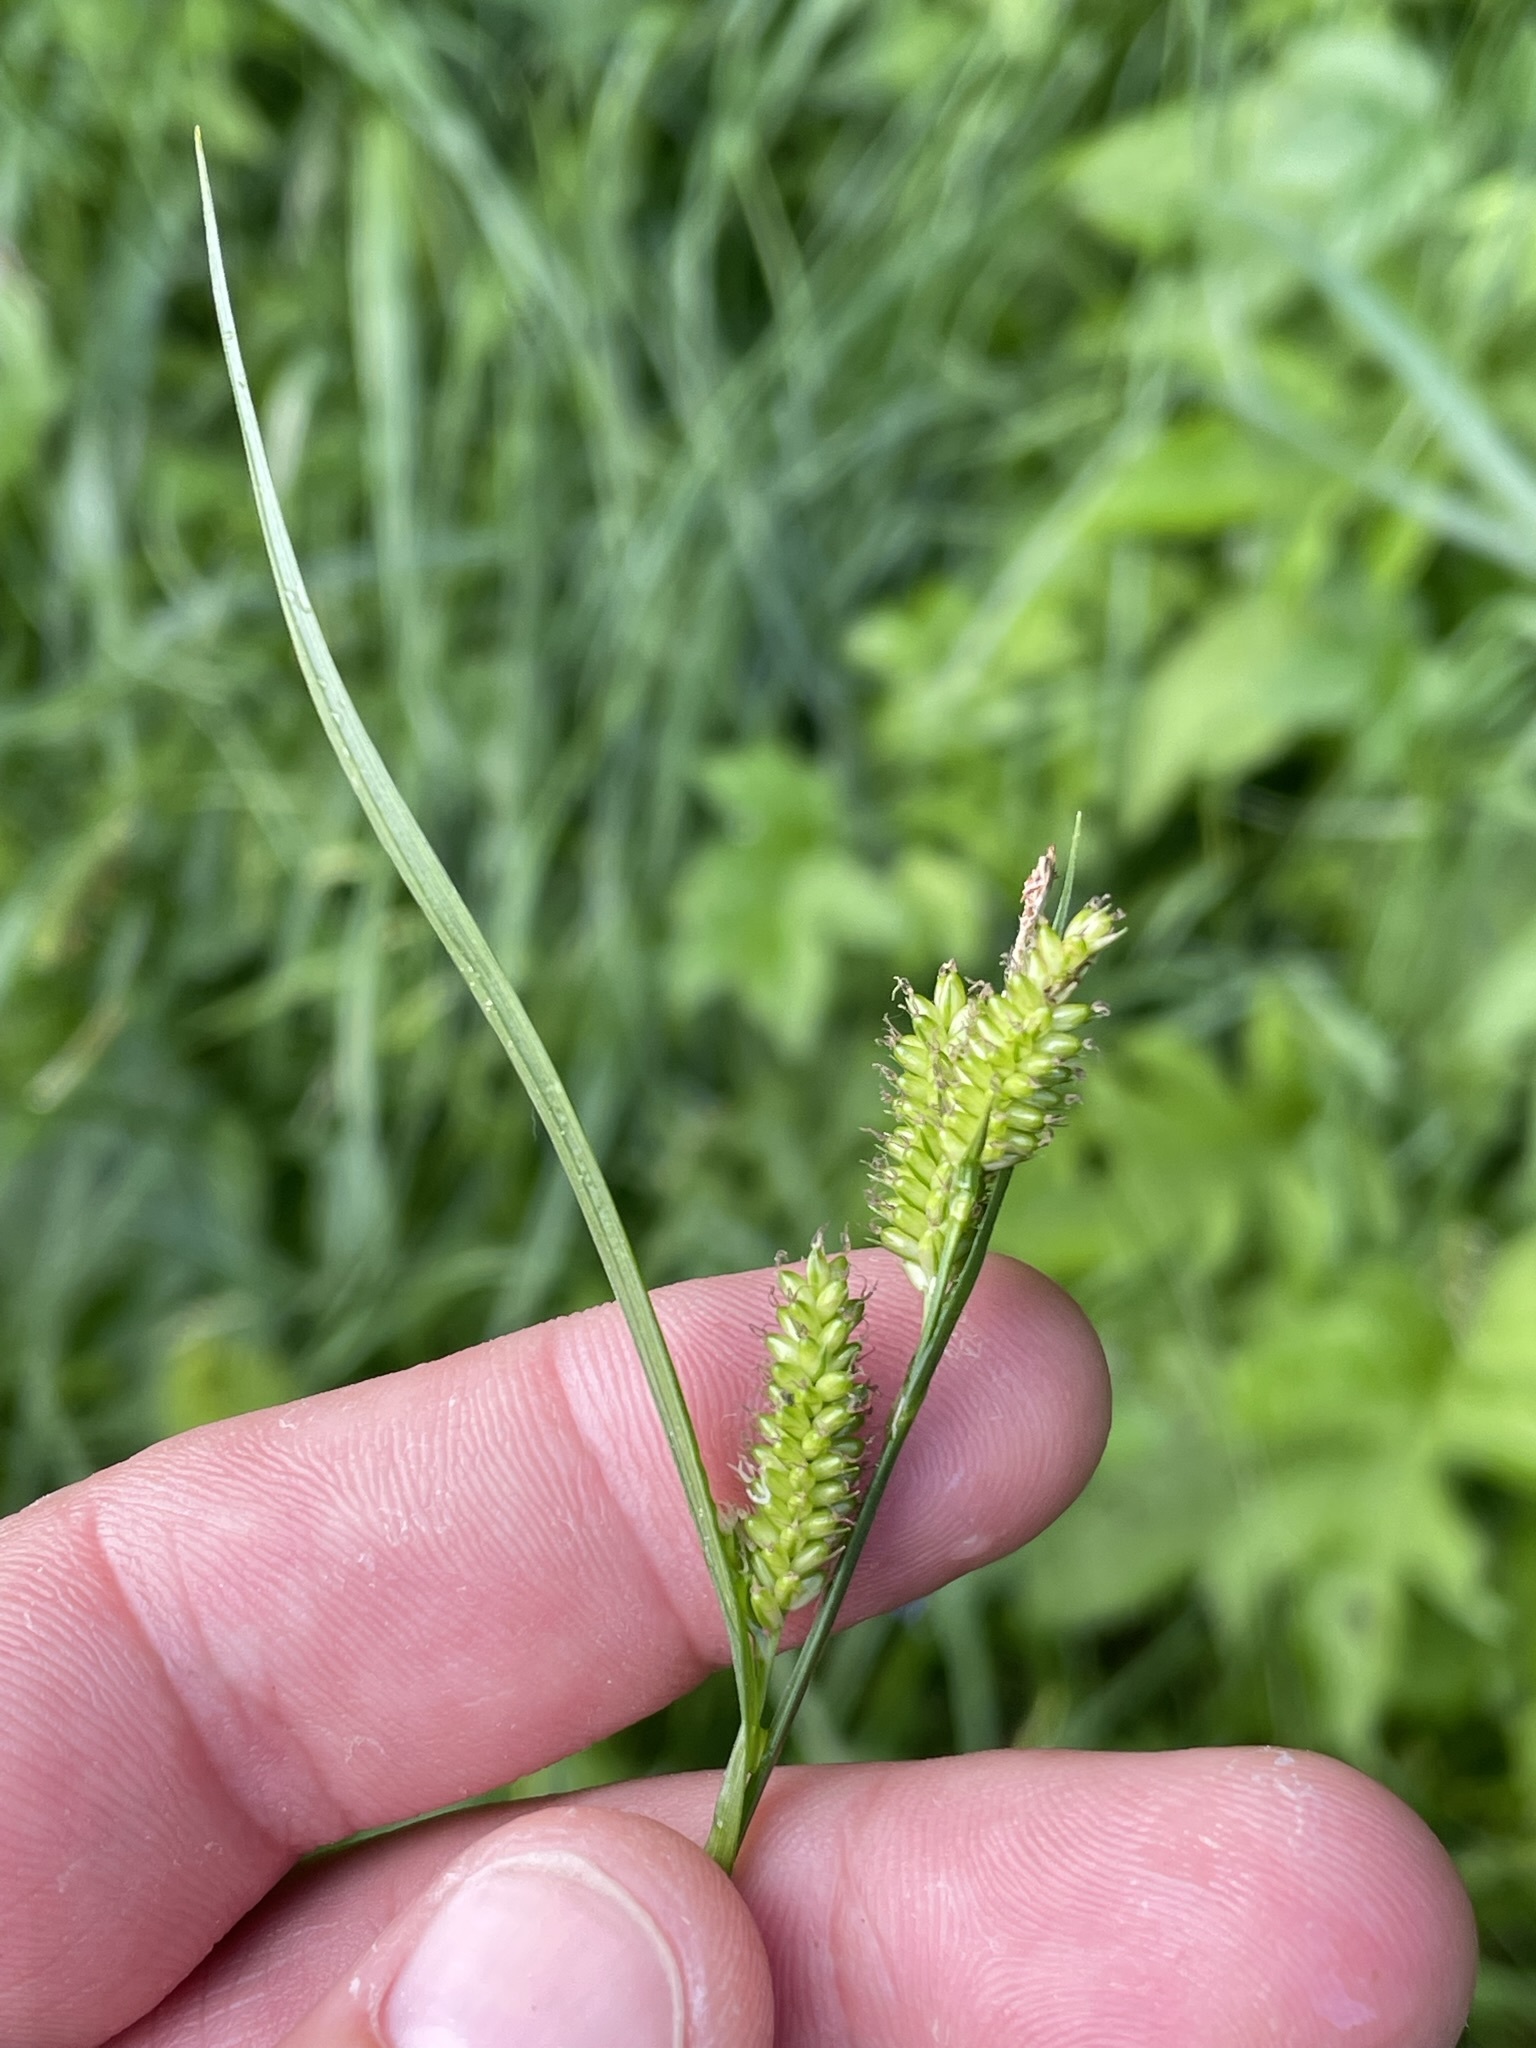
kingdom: Plantae
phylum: Tracheophyta
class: Liliopsida
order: Poales
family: Cyperaceae
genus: Carex
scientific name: Carex pallescens
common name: Pale sedge
